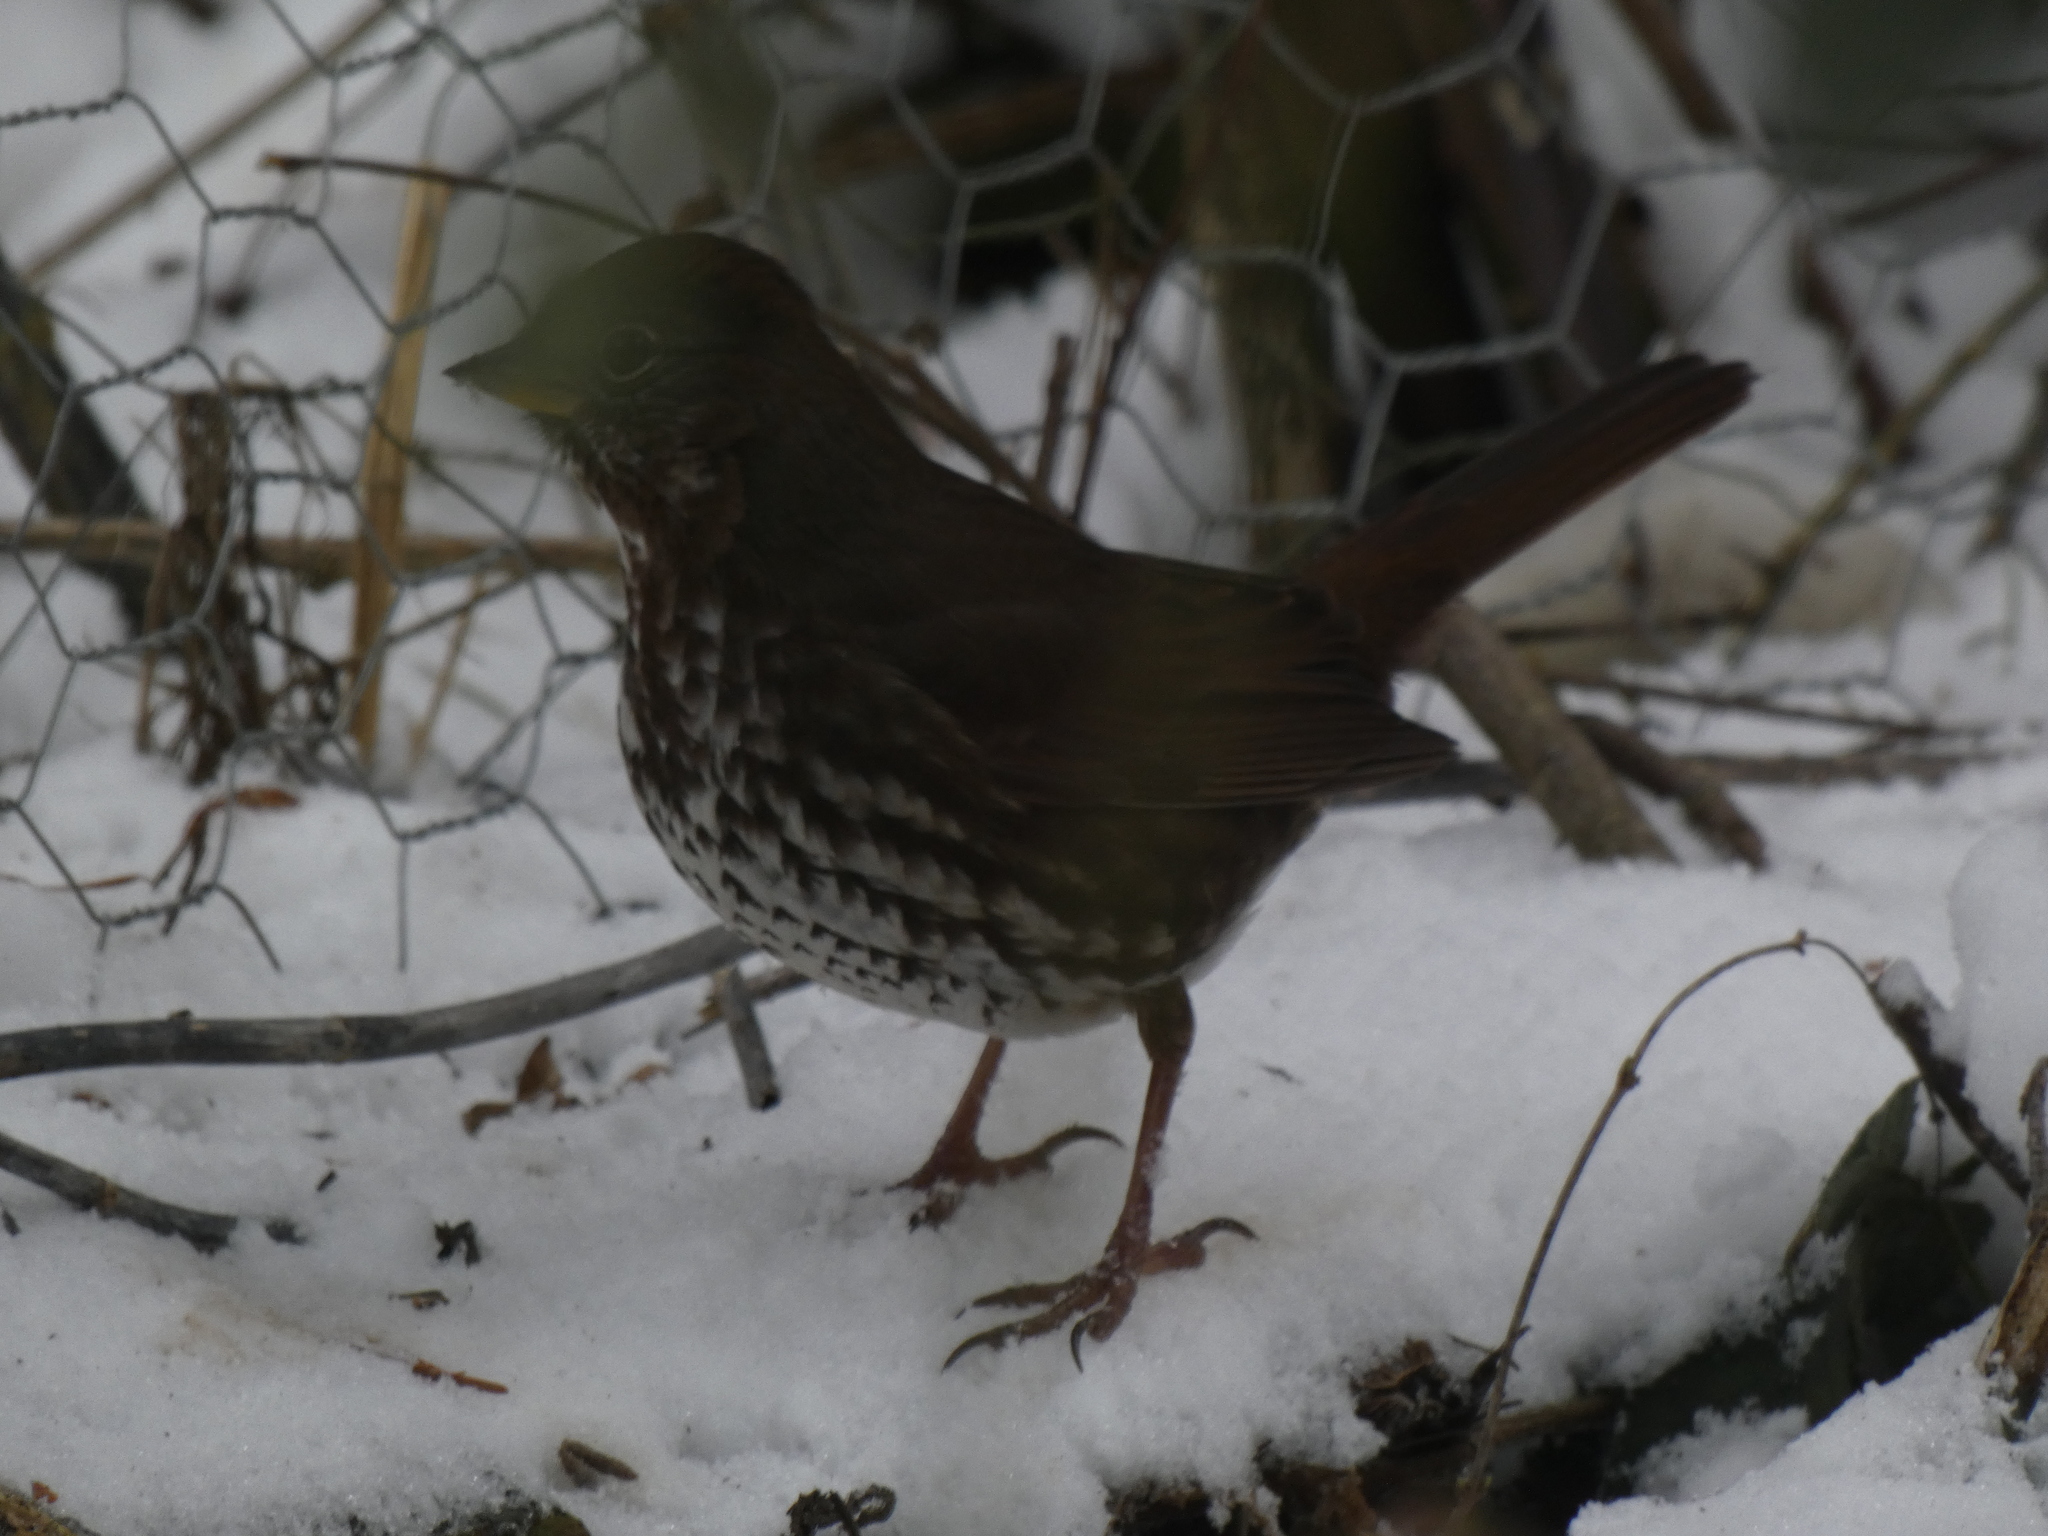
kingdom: Animalia
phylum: Chordata
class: Aves
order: Passeriformes
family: Passerellidae
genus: Passerella
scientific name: Passerella iliaca
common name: Fox sparrow
